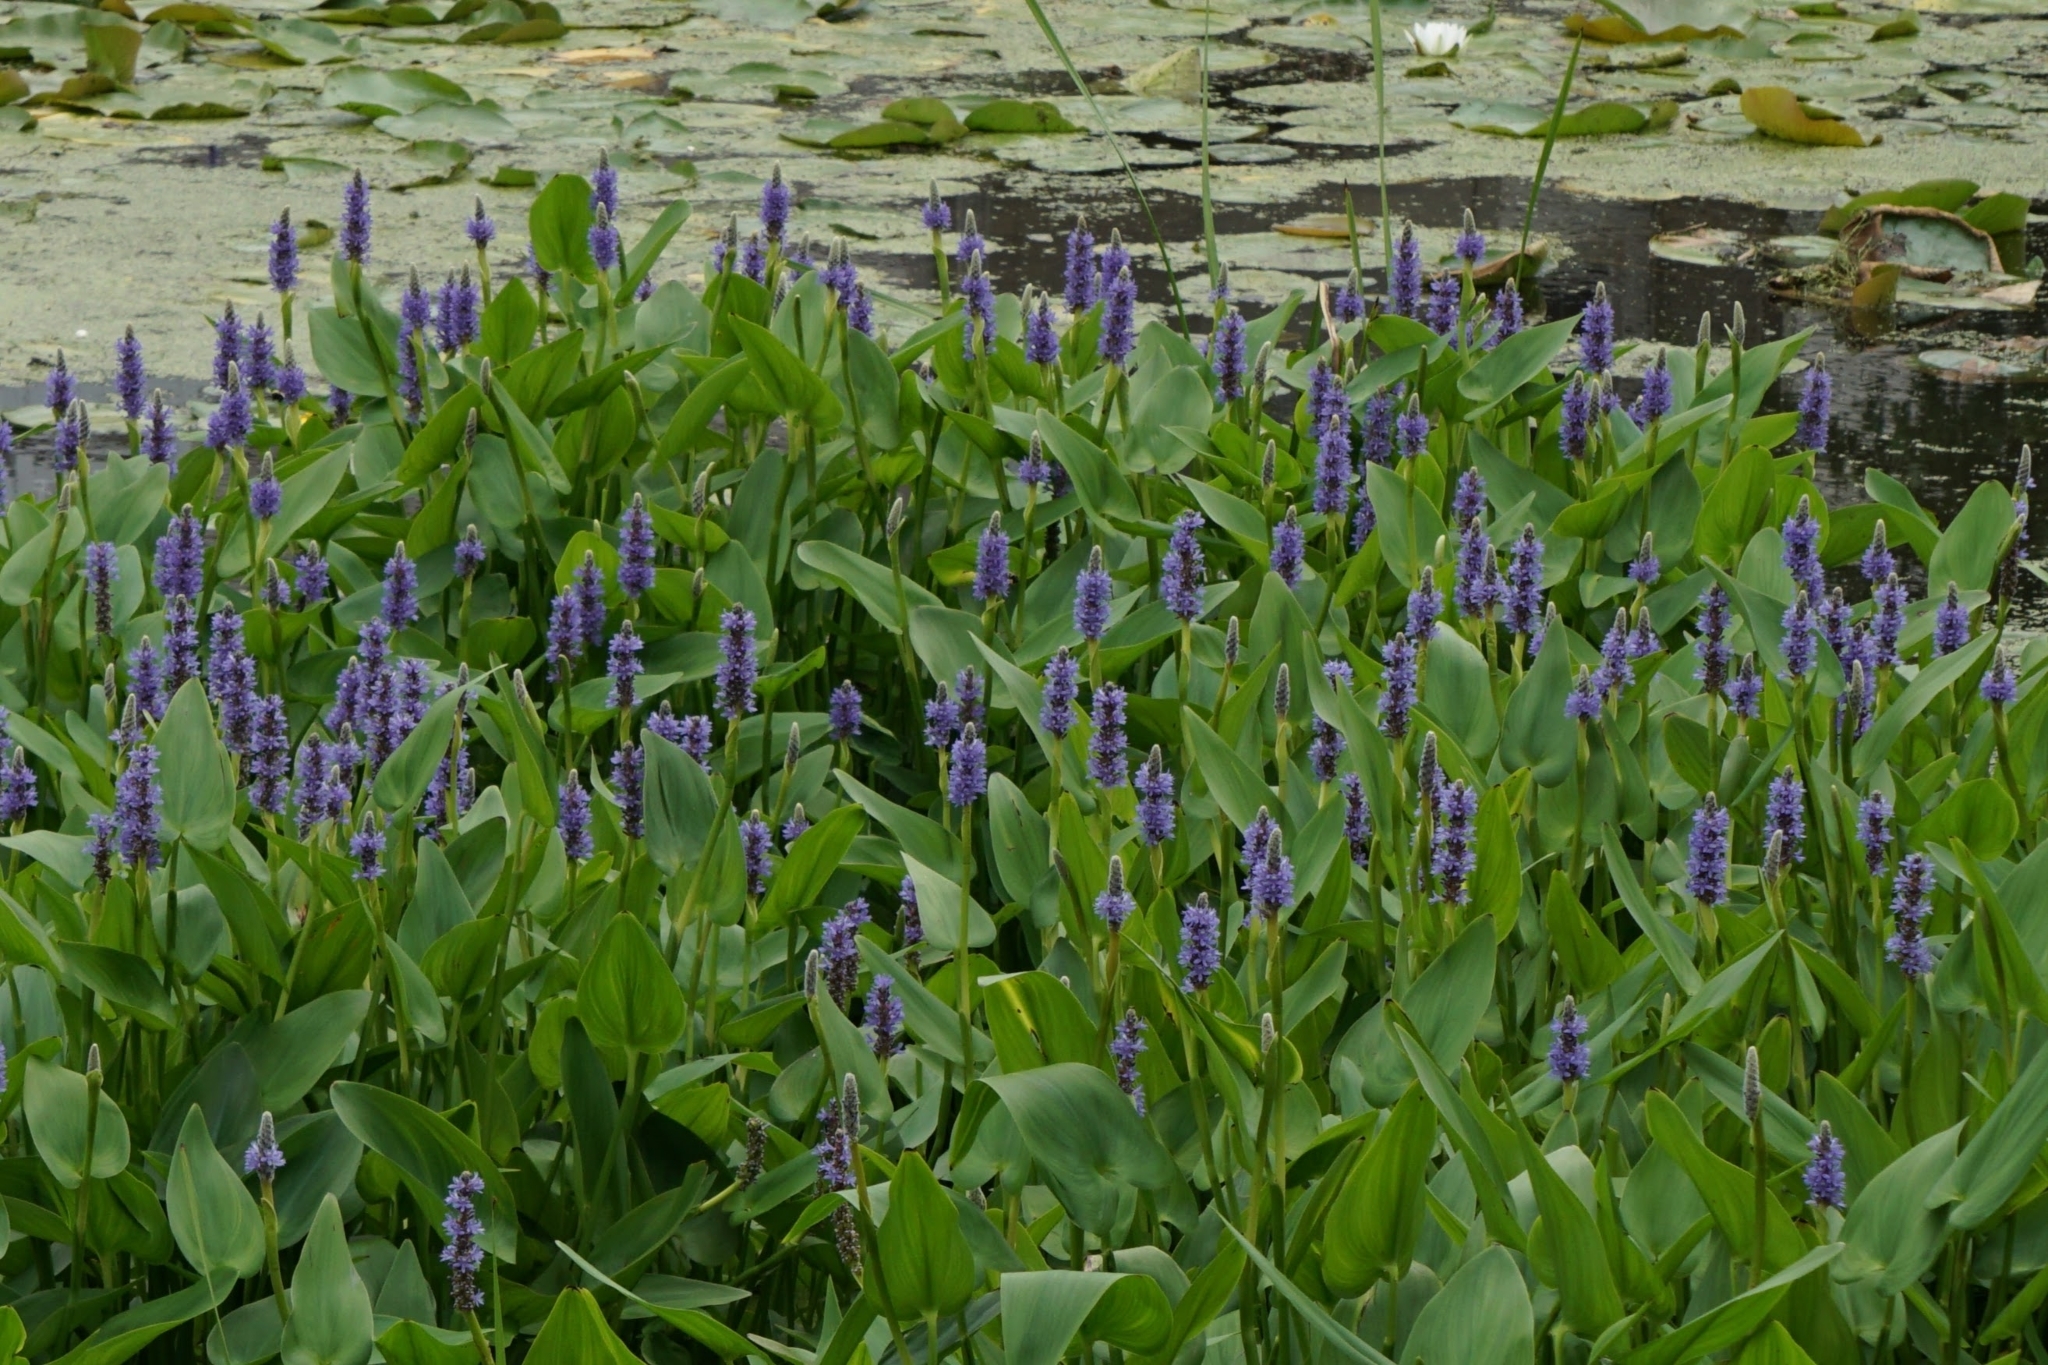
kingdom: Plantae
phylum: Tracheophyta
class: Liliopsida
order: Commelinales
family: Pontederiaceae
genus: Pontederia
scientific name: Pontederia cordata
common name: Pickerelweed
